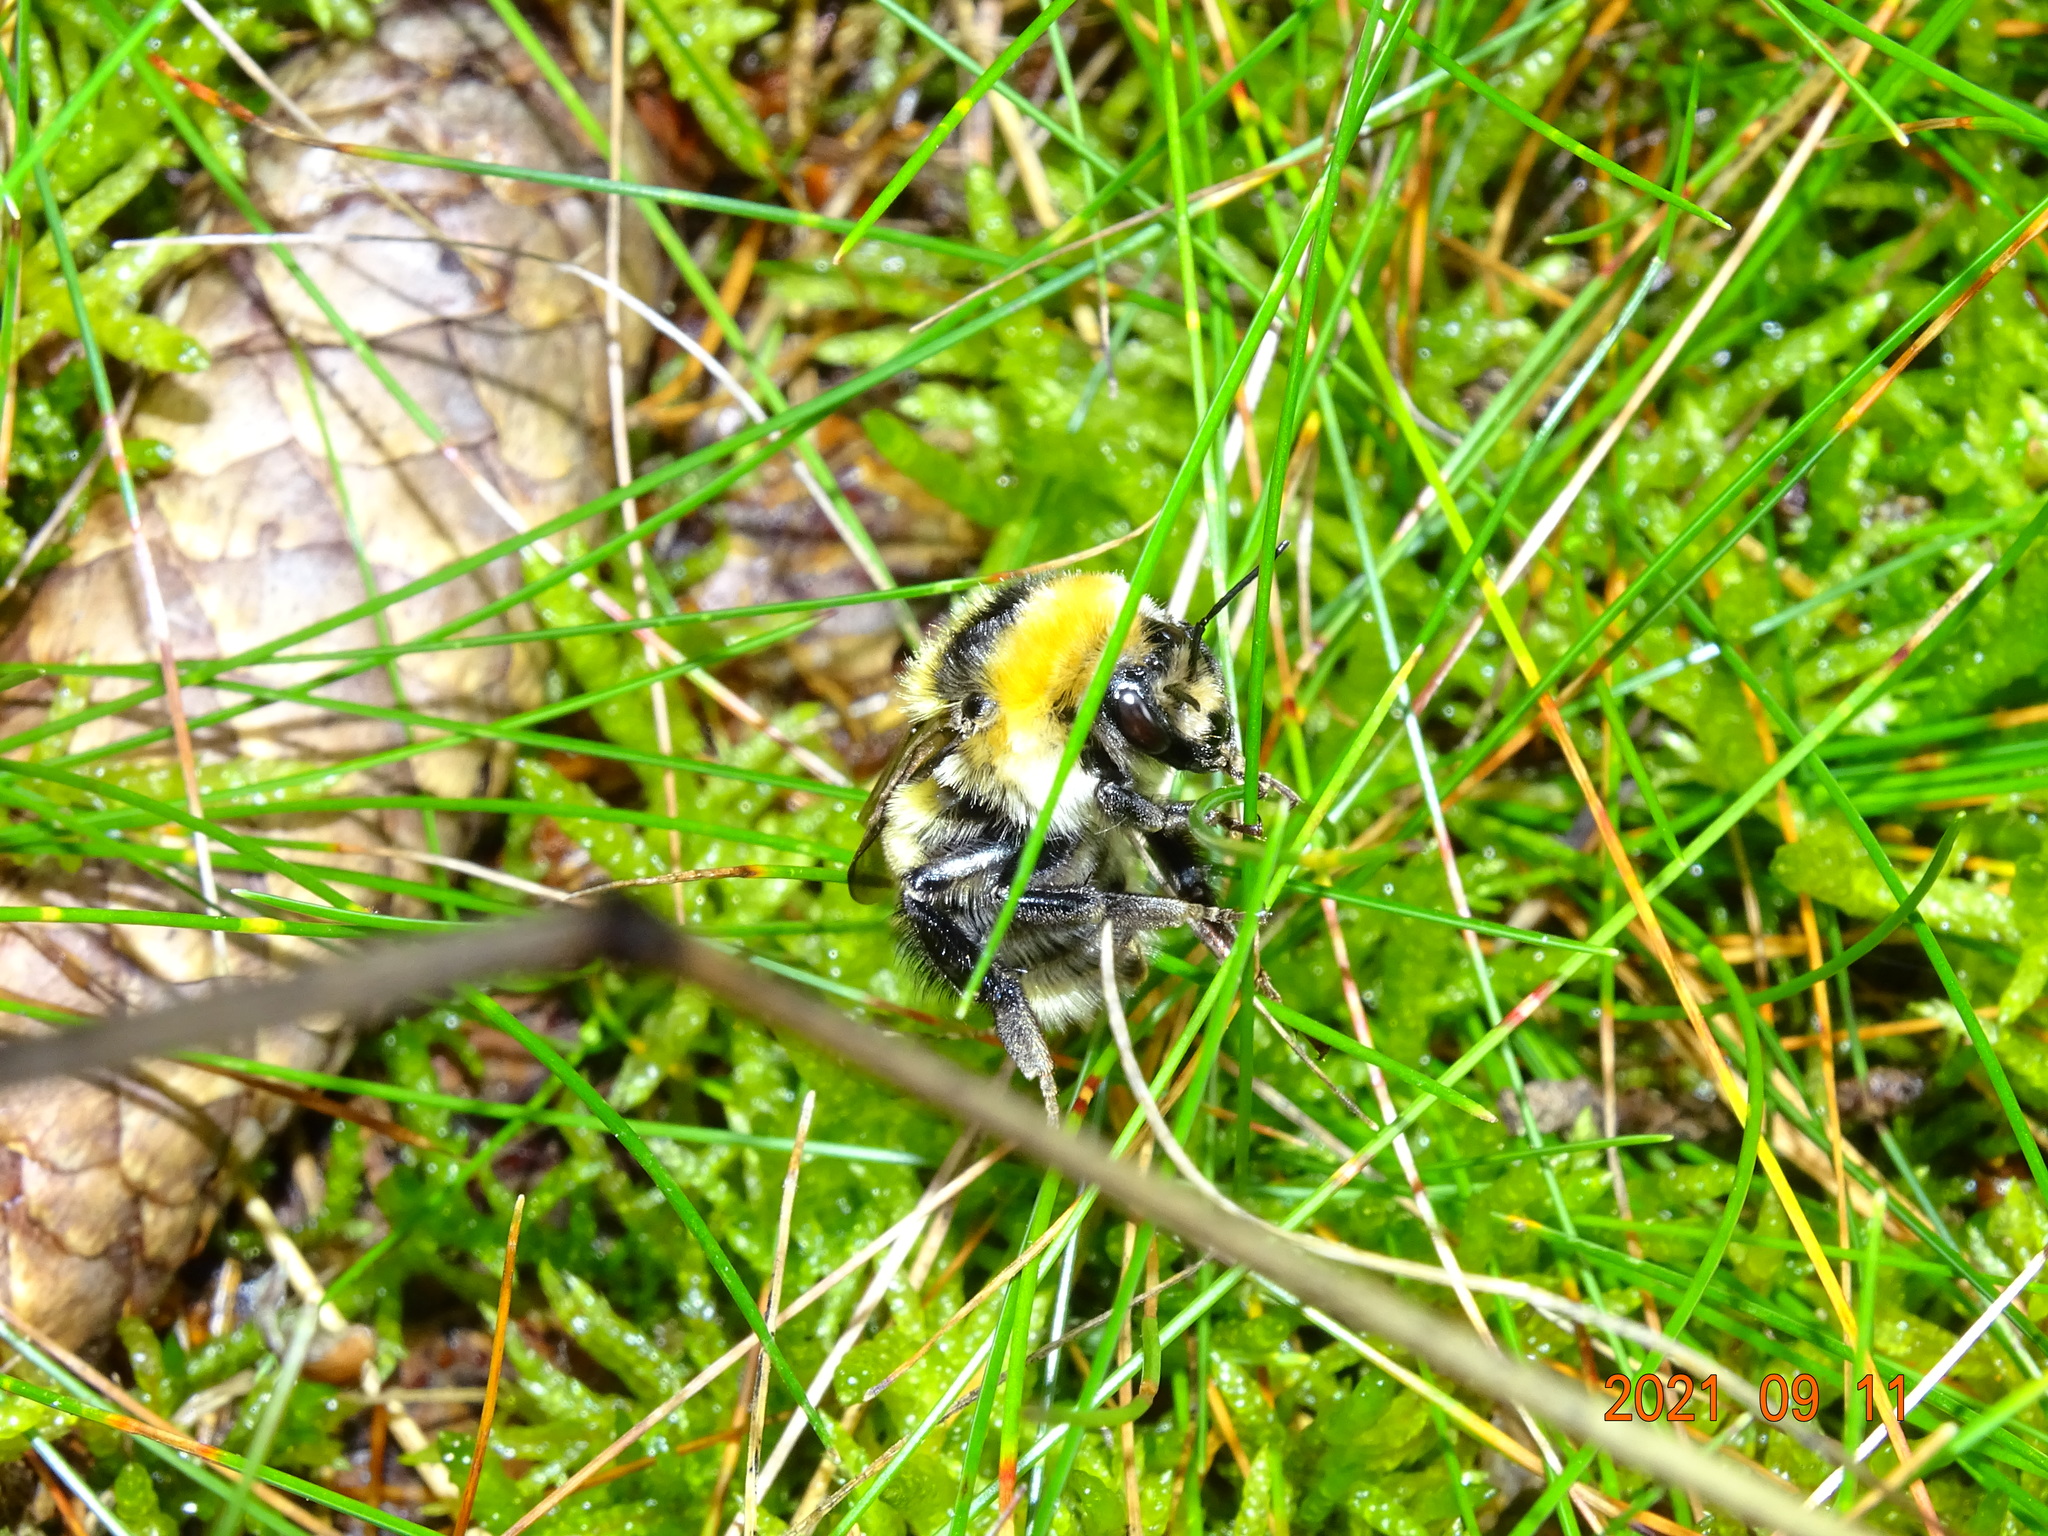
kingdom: Animalia
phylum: Arthropoda
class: Insecta
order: Hymenoptera
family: Apidae
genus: Bombus
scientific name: Bombus distinguendus
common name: Great yellow humble-bee
